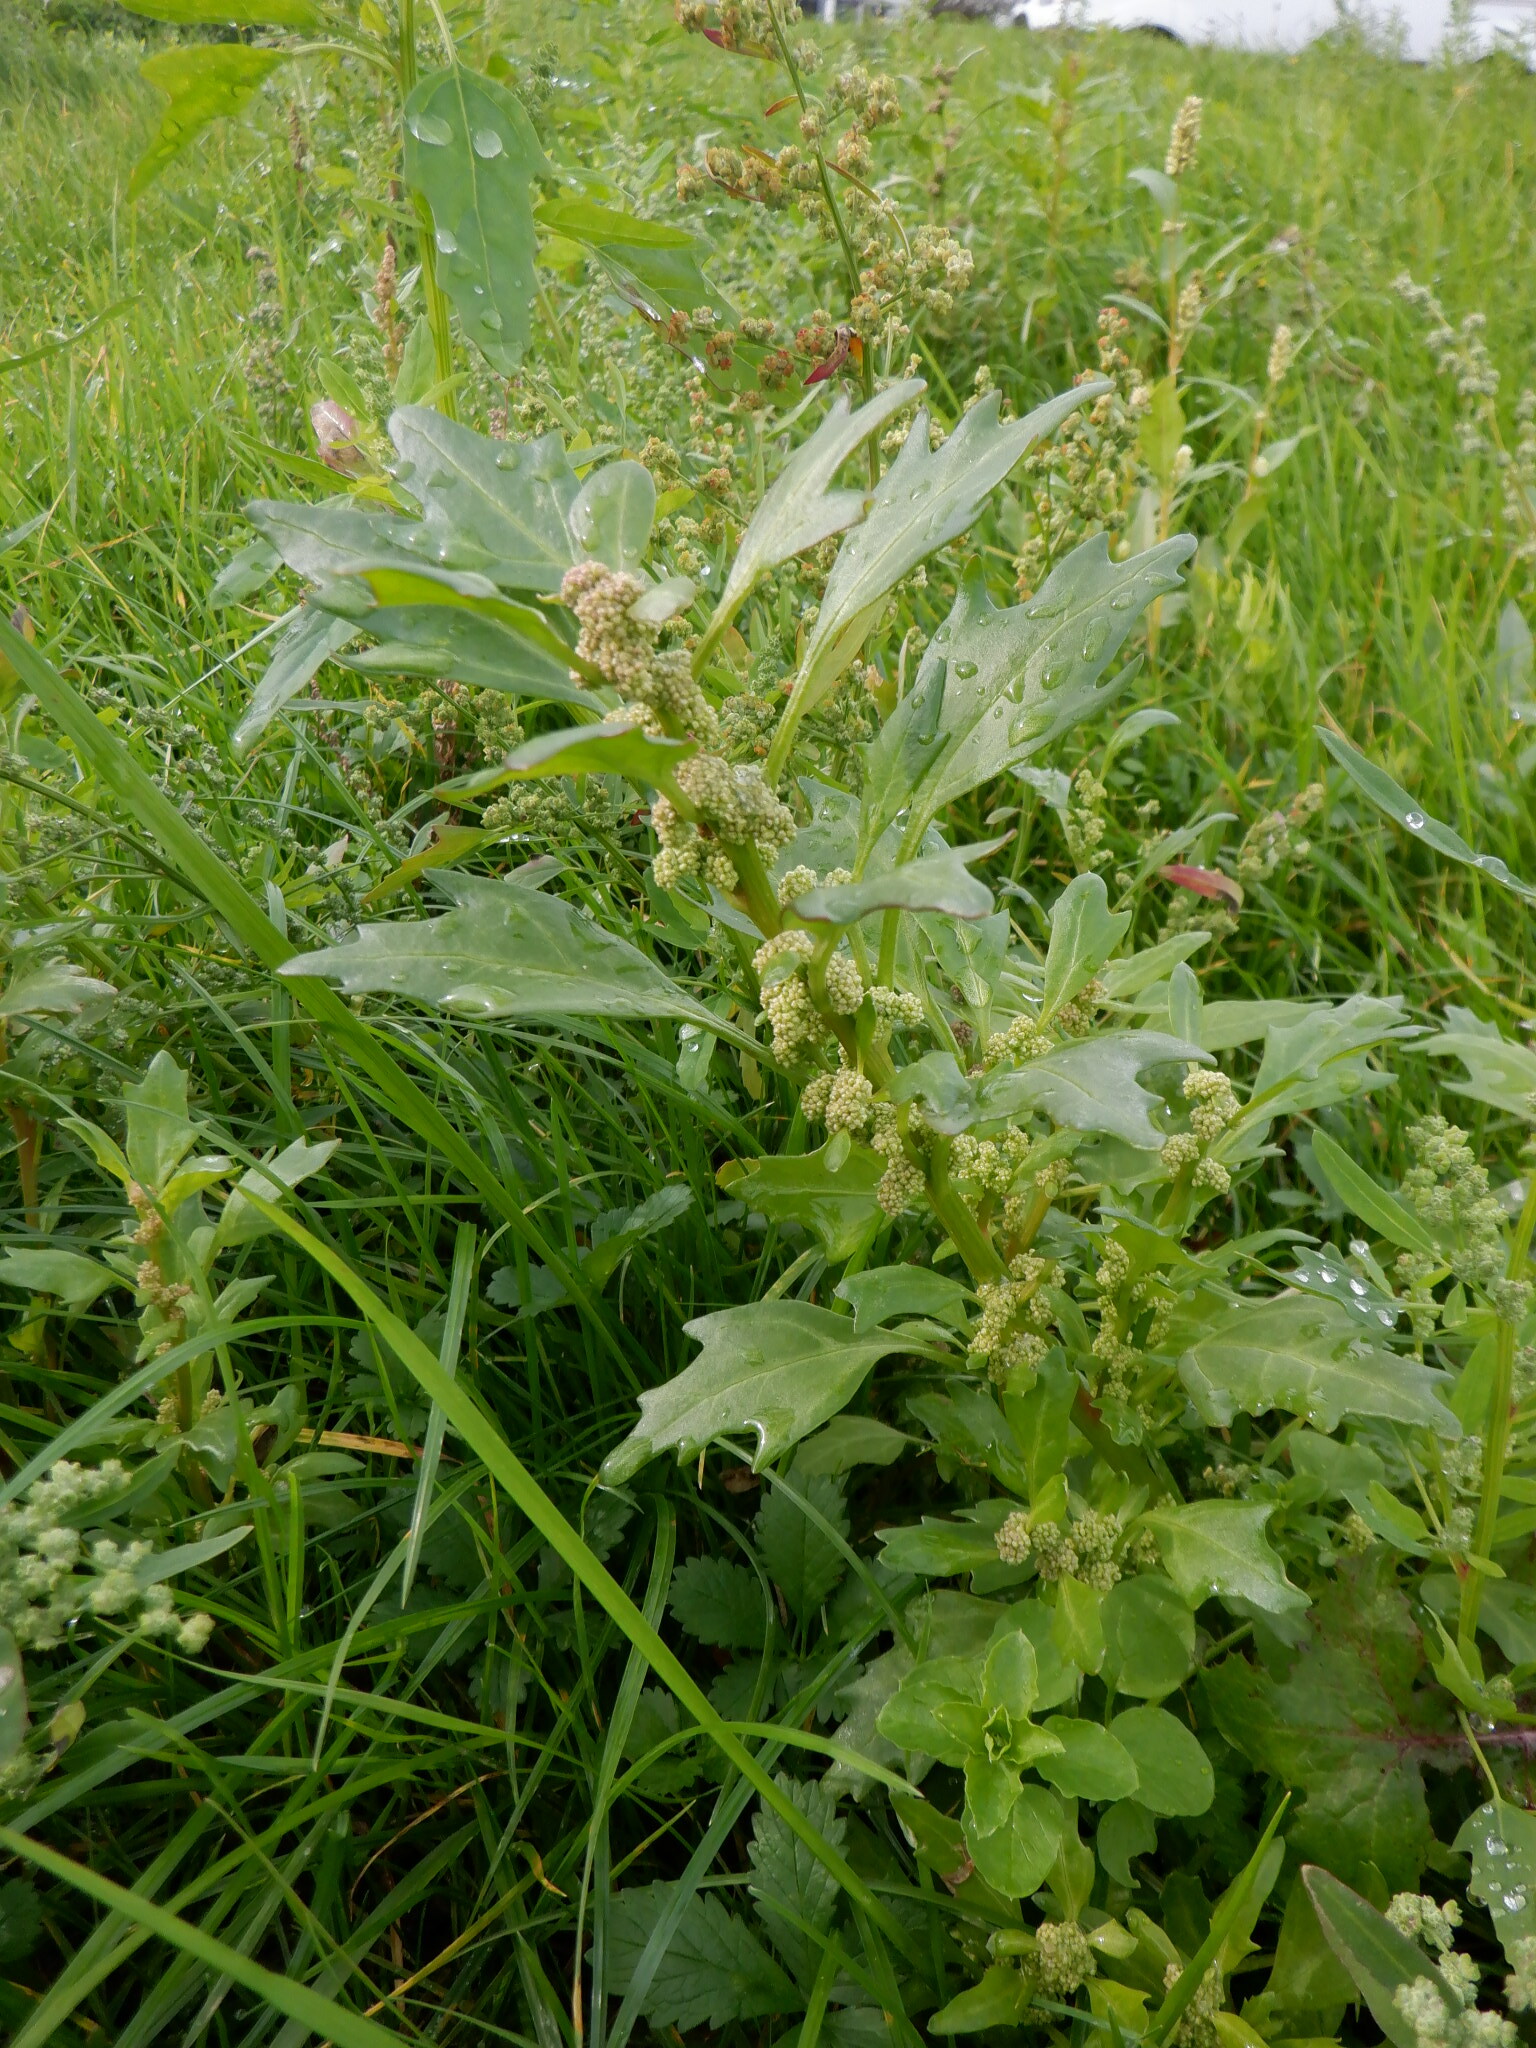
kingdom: Plantae
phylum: Tracheophyta
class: Magnoliopsida
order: Caryophyllales
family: Amaranthaceae
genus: Oxybasis
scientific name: Oxybasis rubra
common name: Red goosefoot
